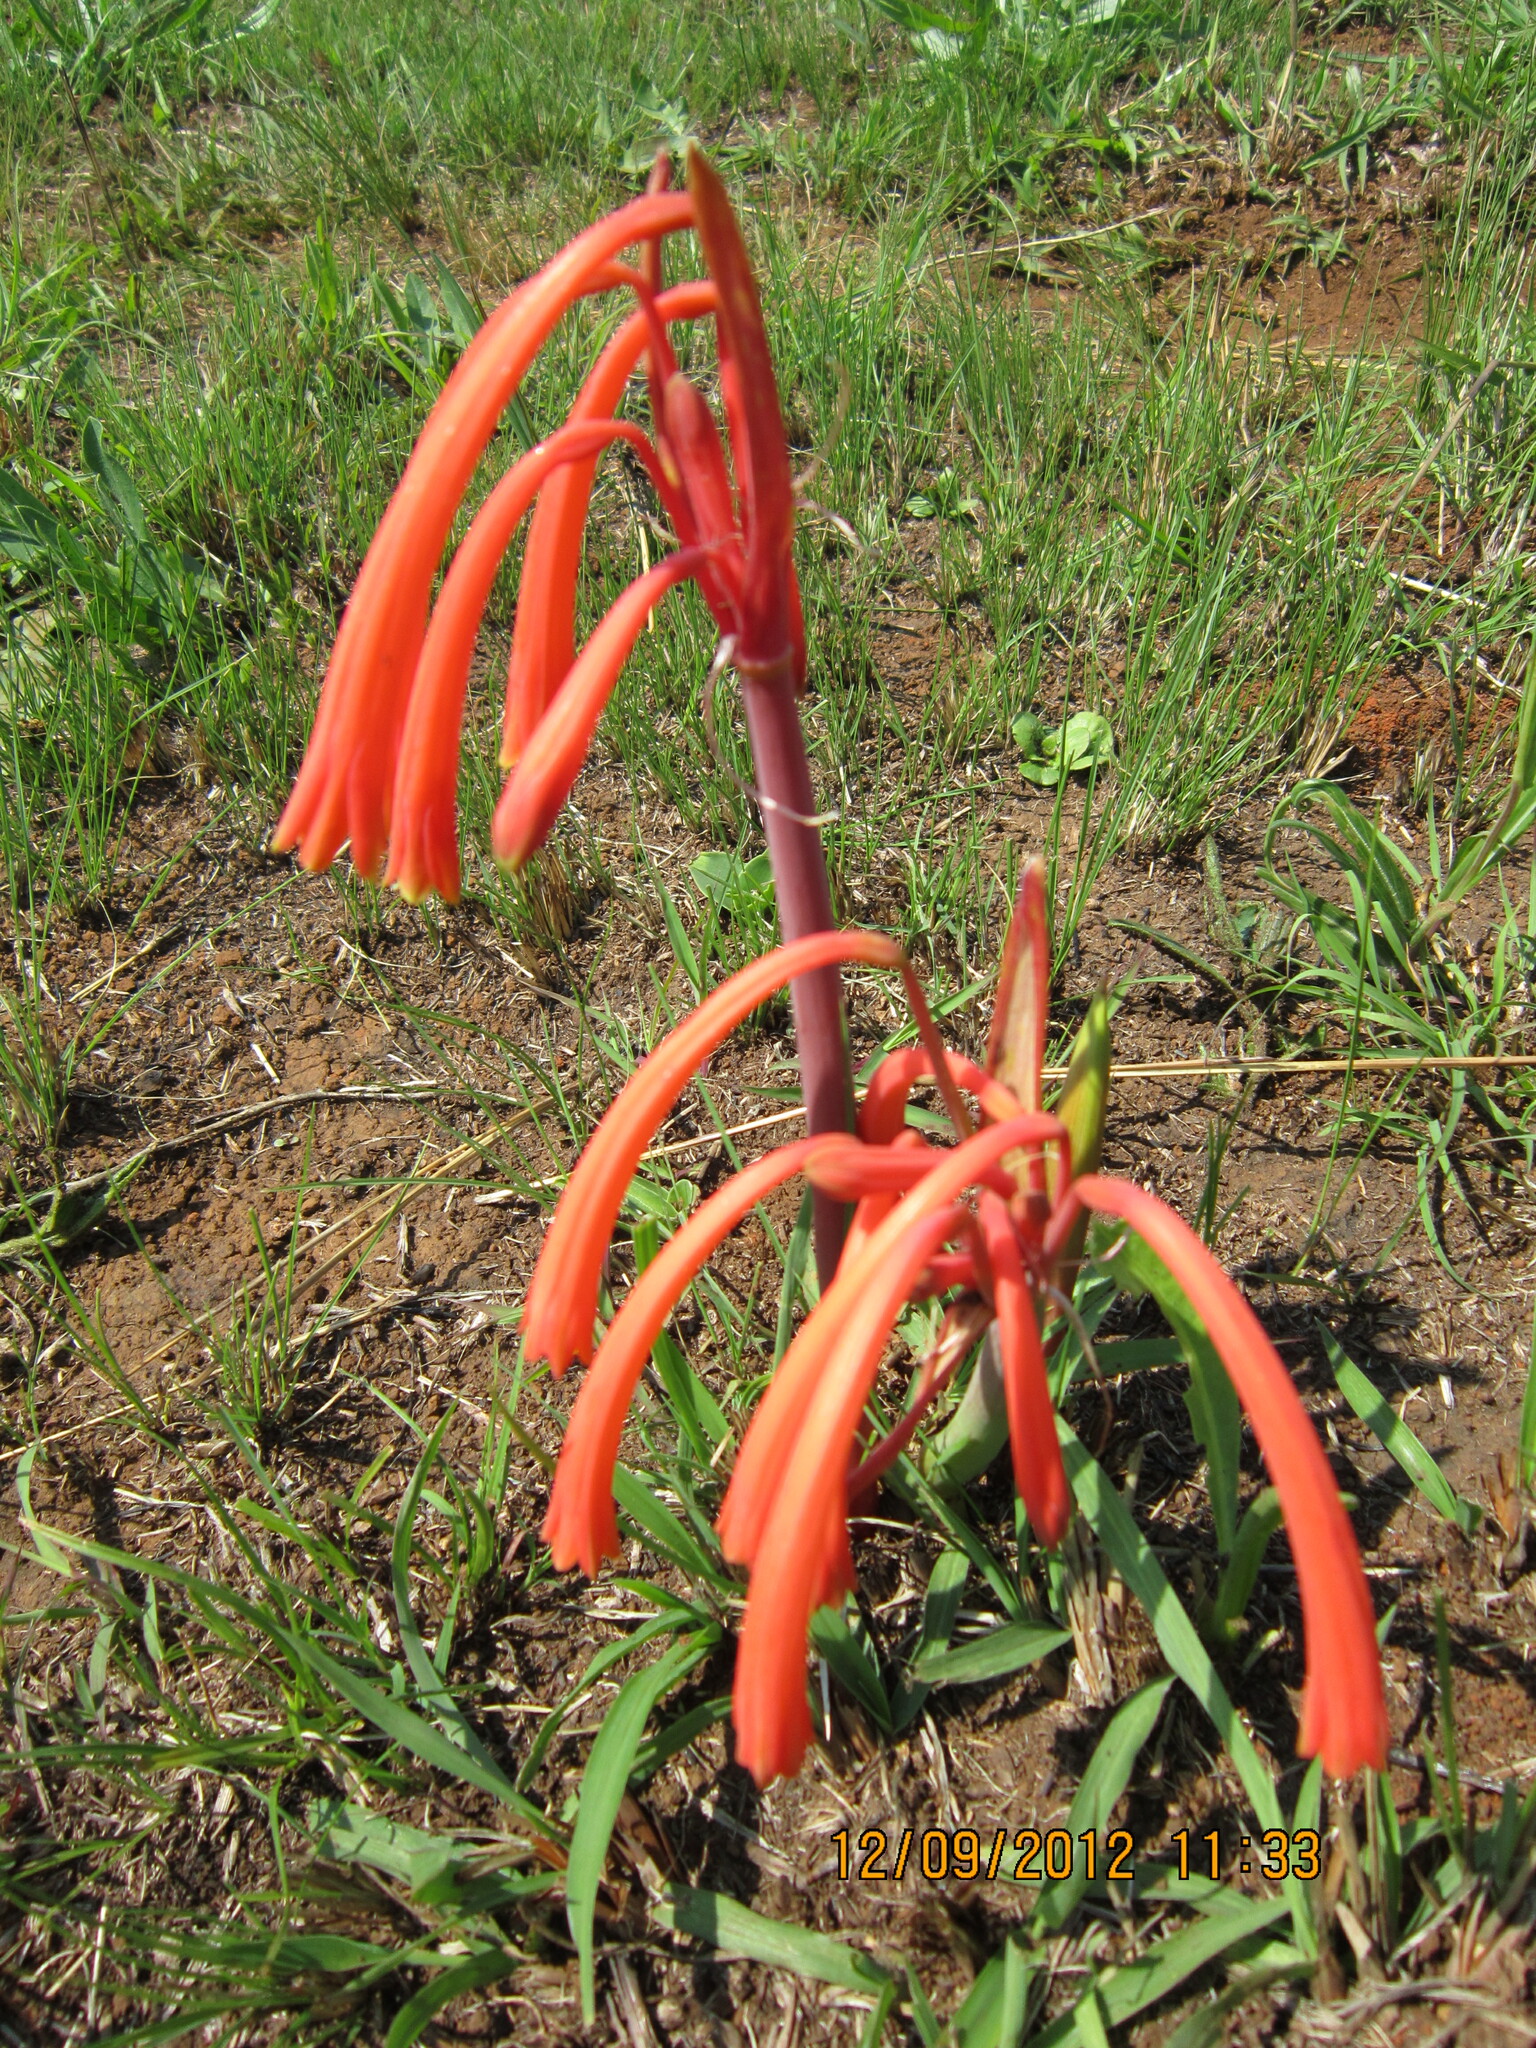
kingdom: Plantae
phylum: Tracheophyta
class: Liliopsida
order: Asparagales
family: Amaryllidaceae
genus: Cyrtanthus
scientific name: Cyrtanthus tuckii
